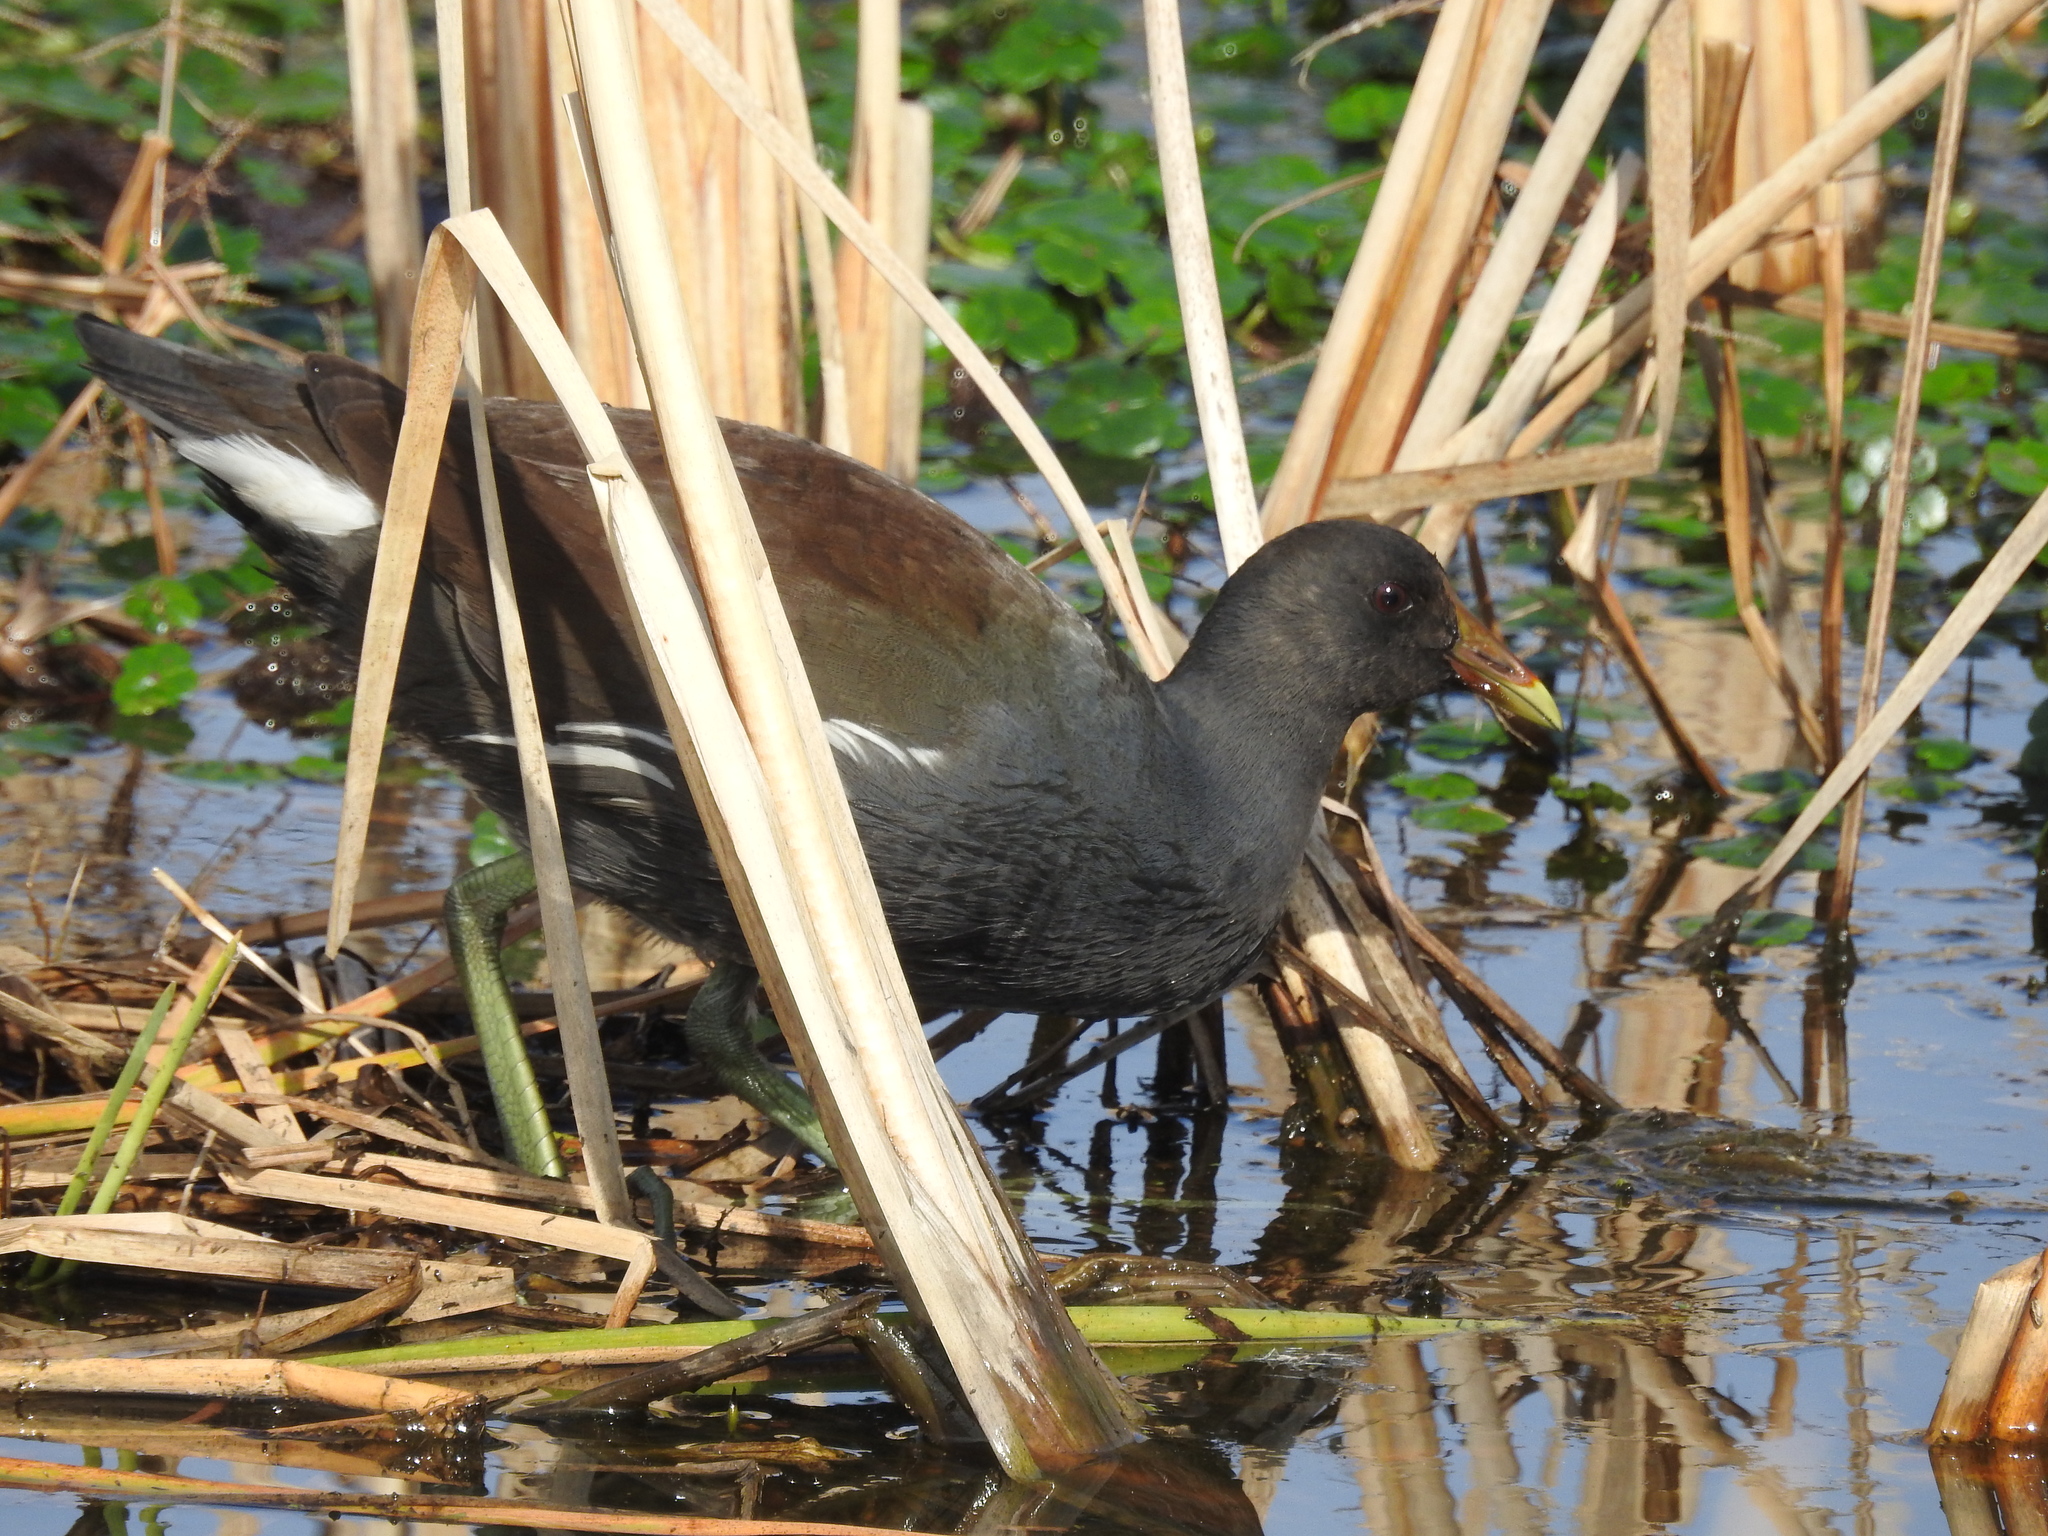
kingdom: Animalia
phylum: Chordata
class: Aves
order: Gruiformes
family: Rallidae
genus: Gallinula
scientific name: Gallinula chloropus
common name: Common moorhen
